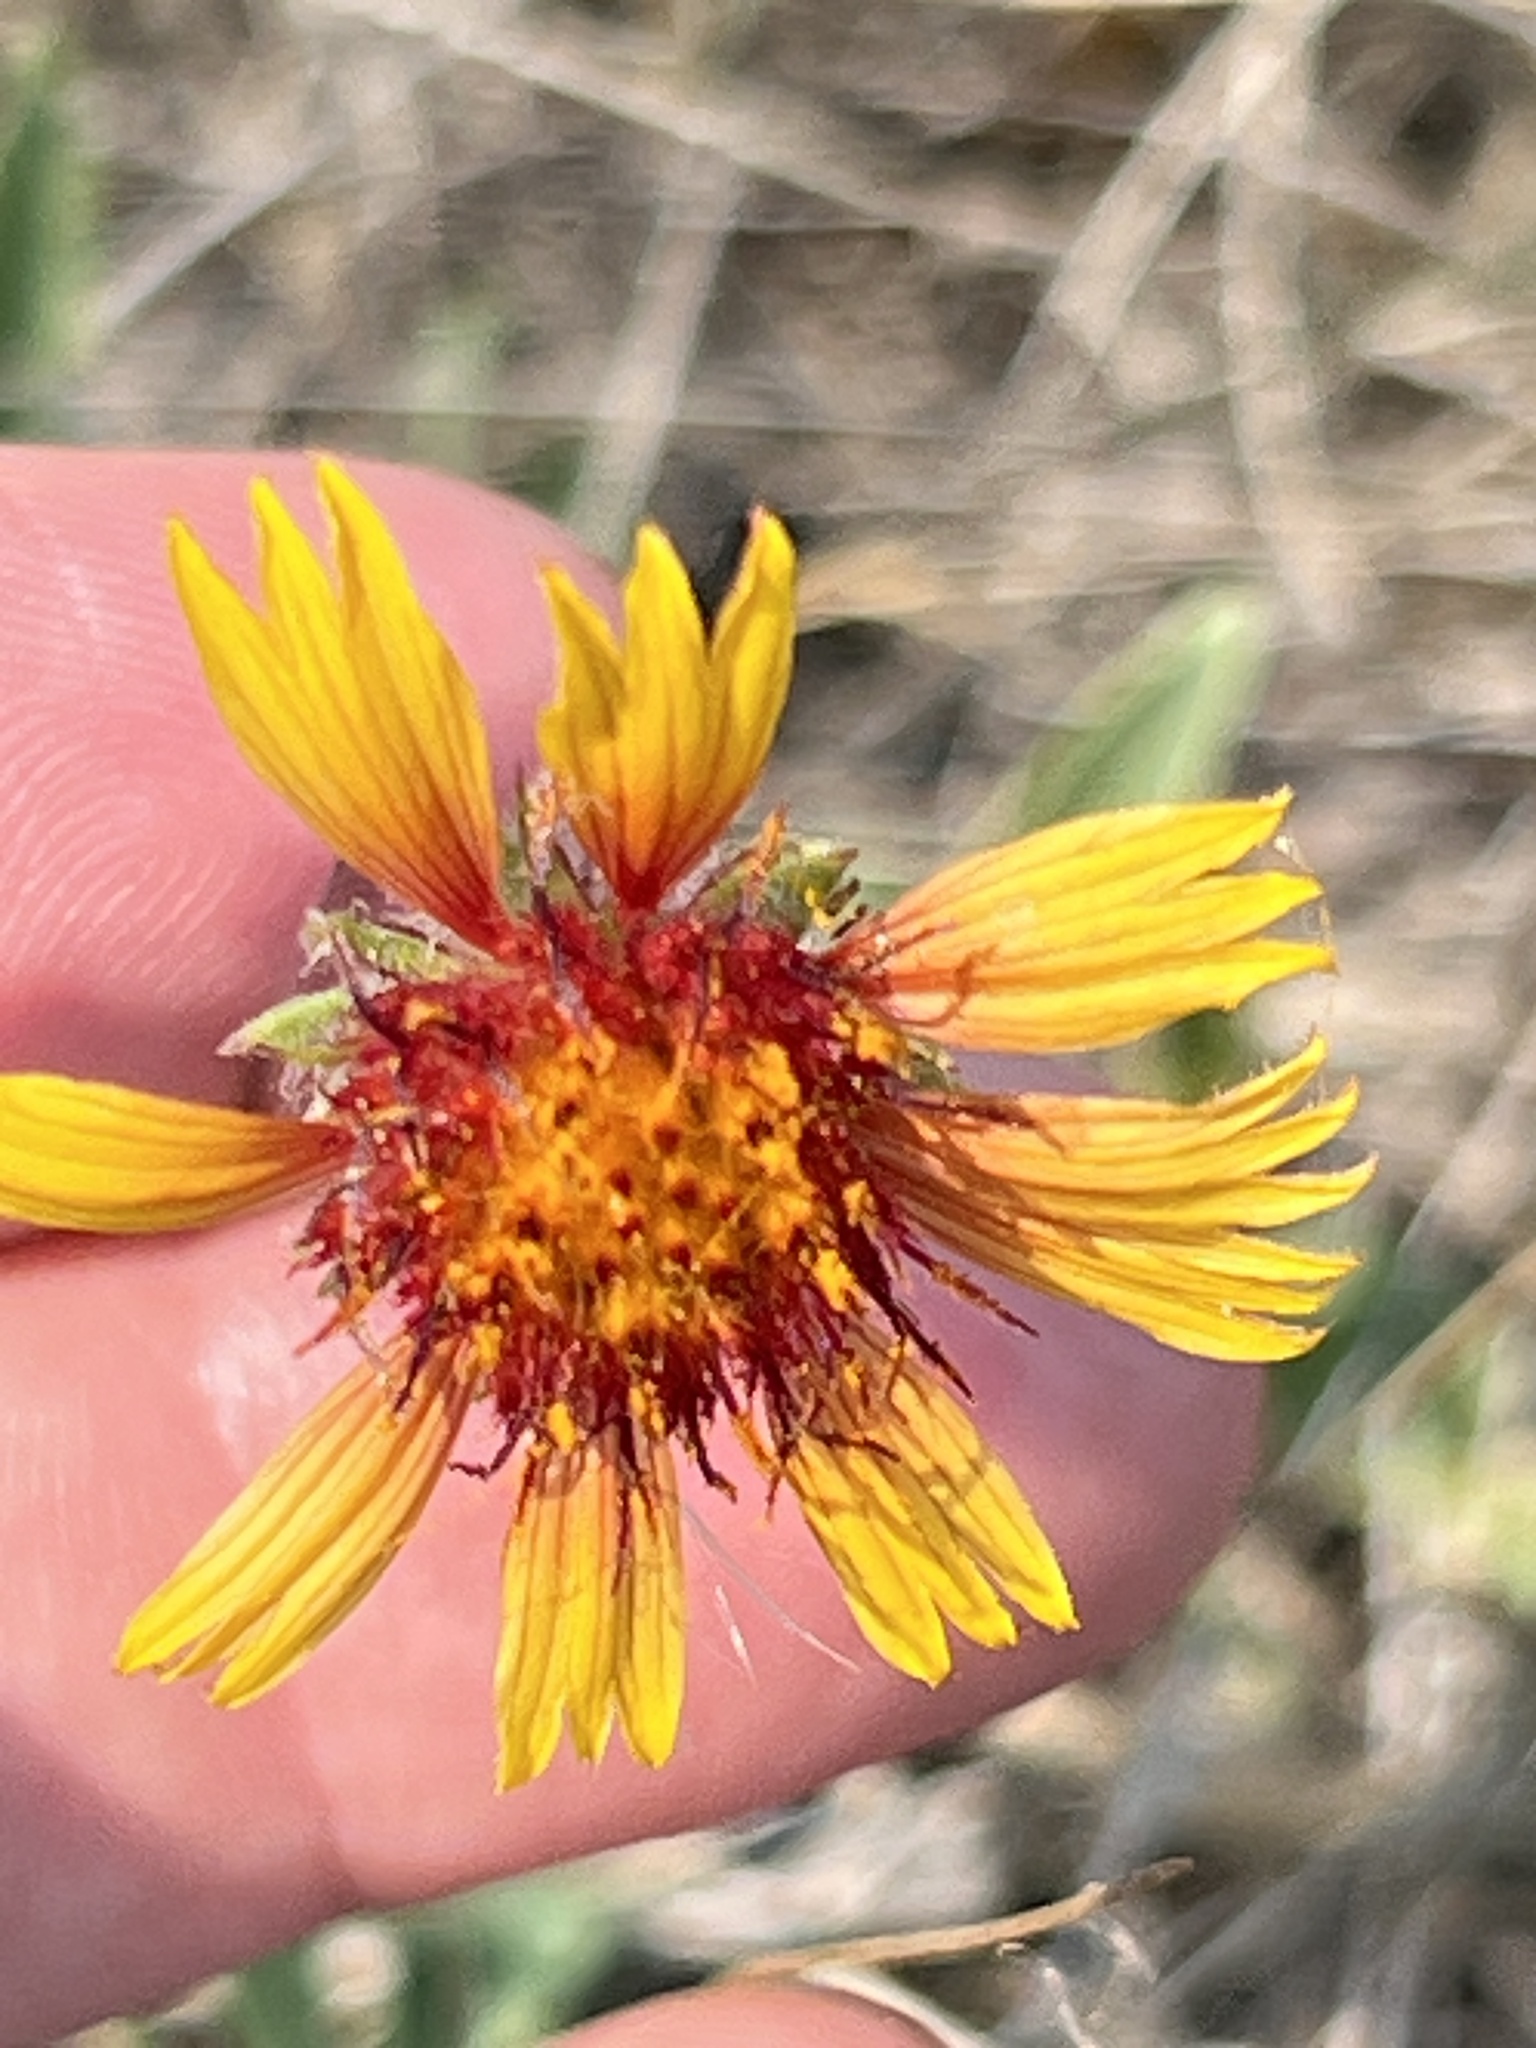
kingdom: Plantae
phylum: Tracheophyta
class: Magnoliopsida
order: Asterales
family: Asteraceae
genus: Gaillardia
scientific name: Gaillardia aristata
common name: Blanket-flower
